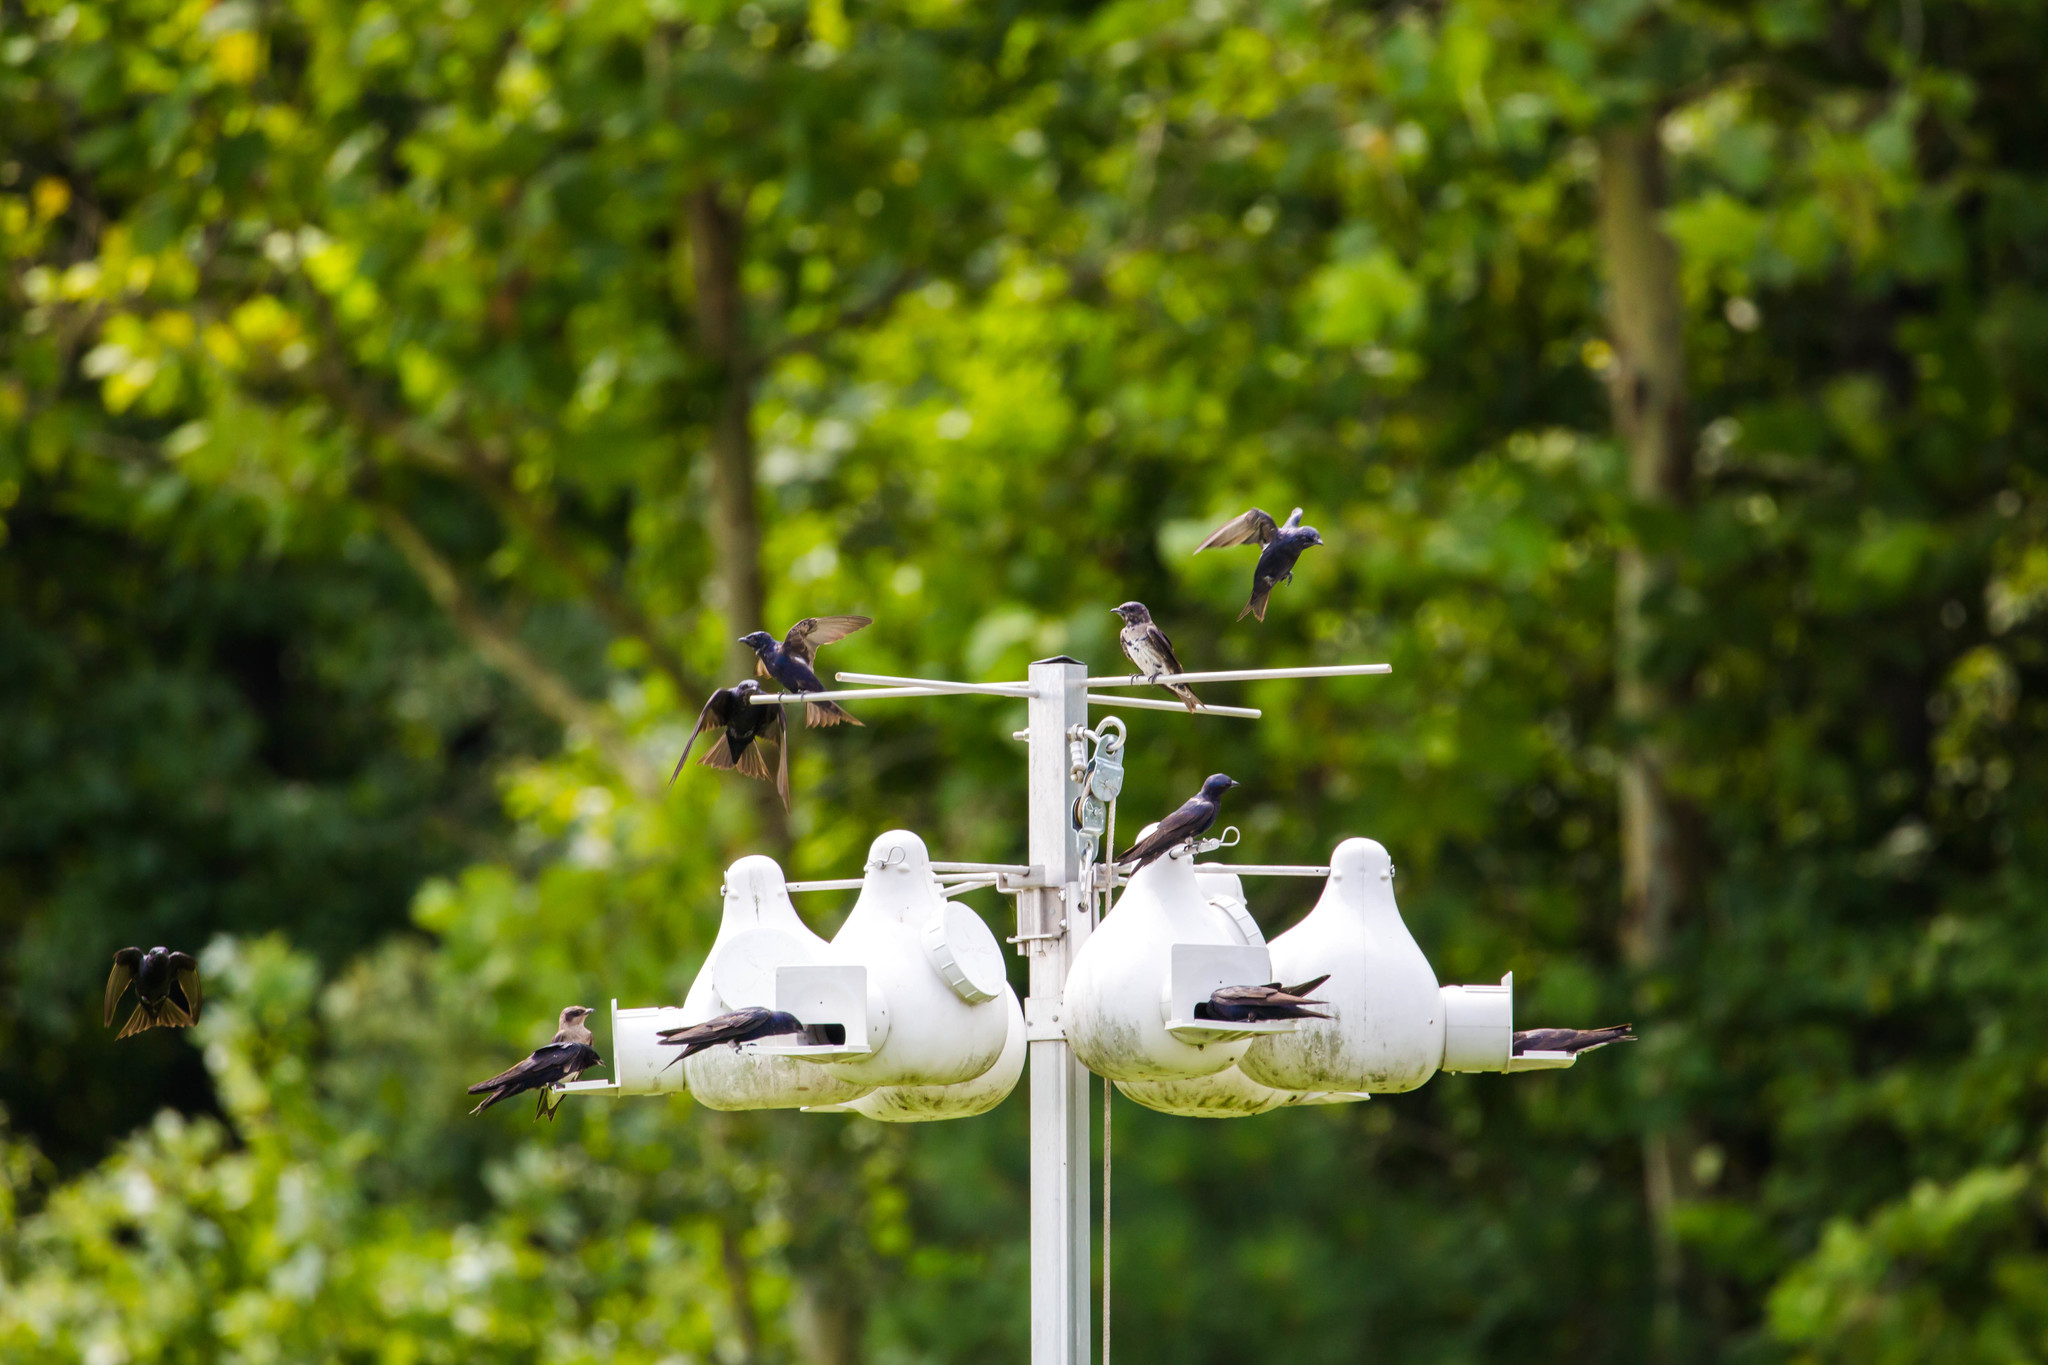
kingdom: Animalia
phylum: Chordata
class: Aves
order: Passeriformes
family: Hirundinidae
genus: Progne
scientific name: Progne subis
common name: Purple martin
